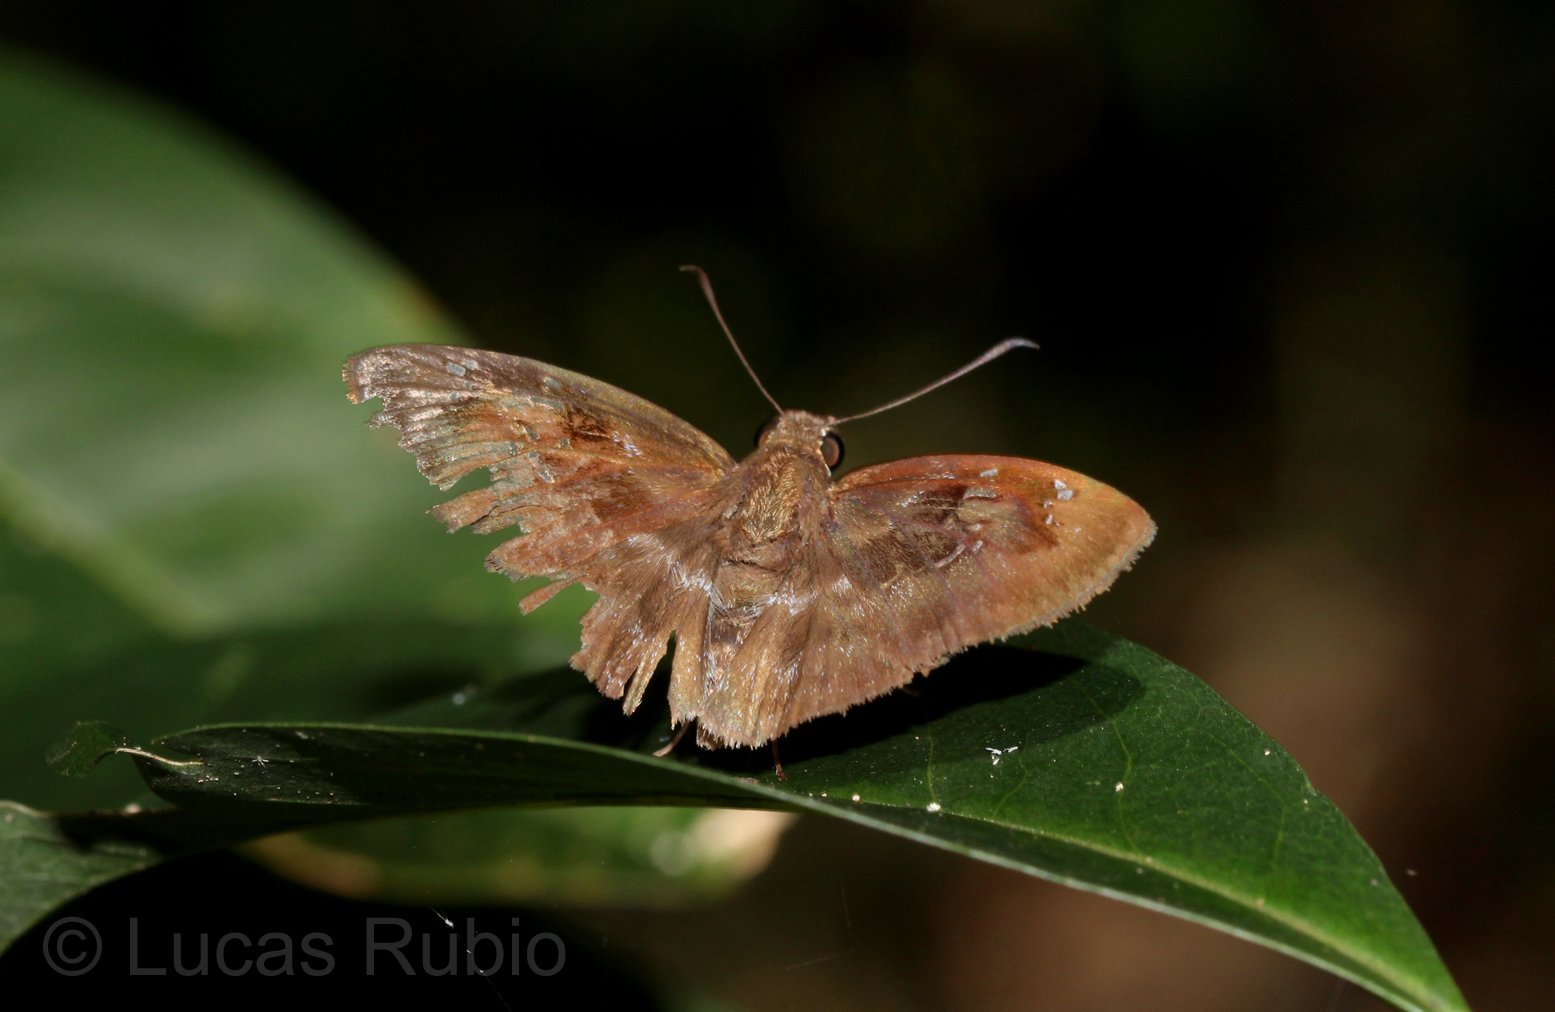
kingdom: Animalia
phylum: Arthropoda
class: Insecta
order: Lepidoptera
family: Hesperiidae
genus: Quadrus
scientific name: Quadrus ulucida
